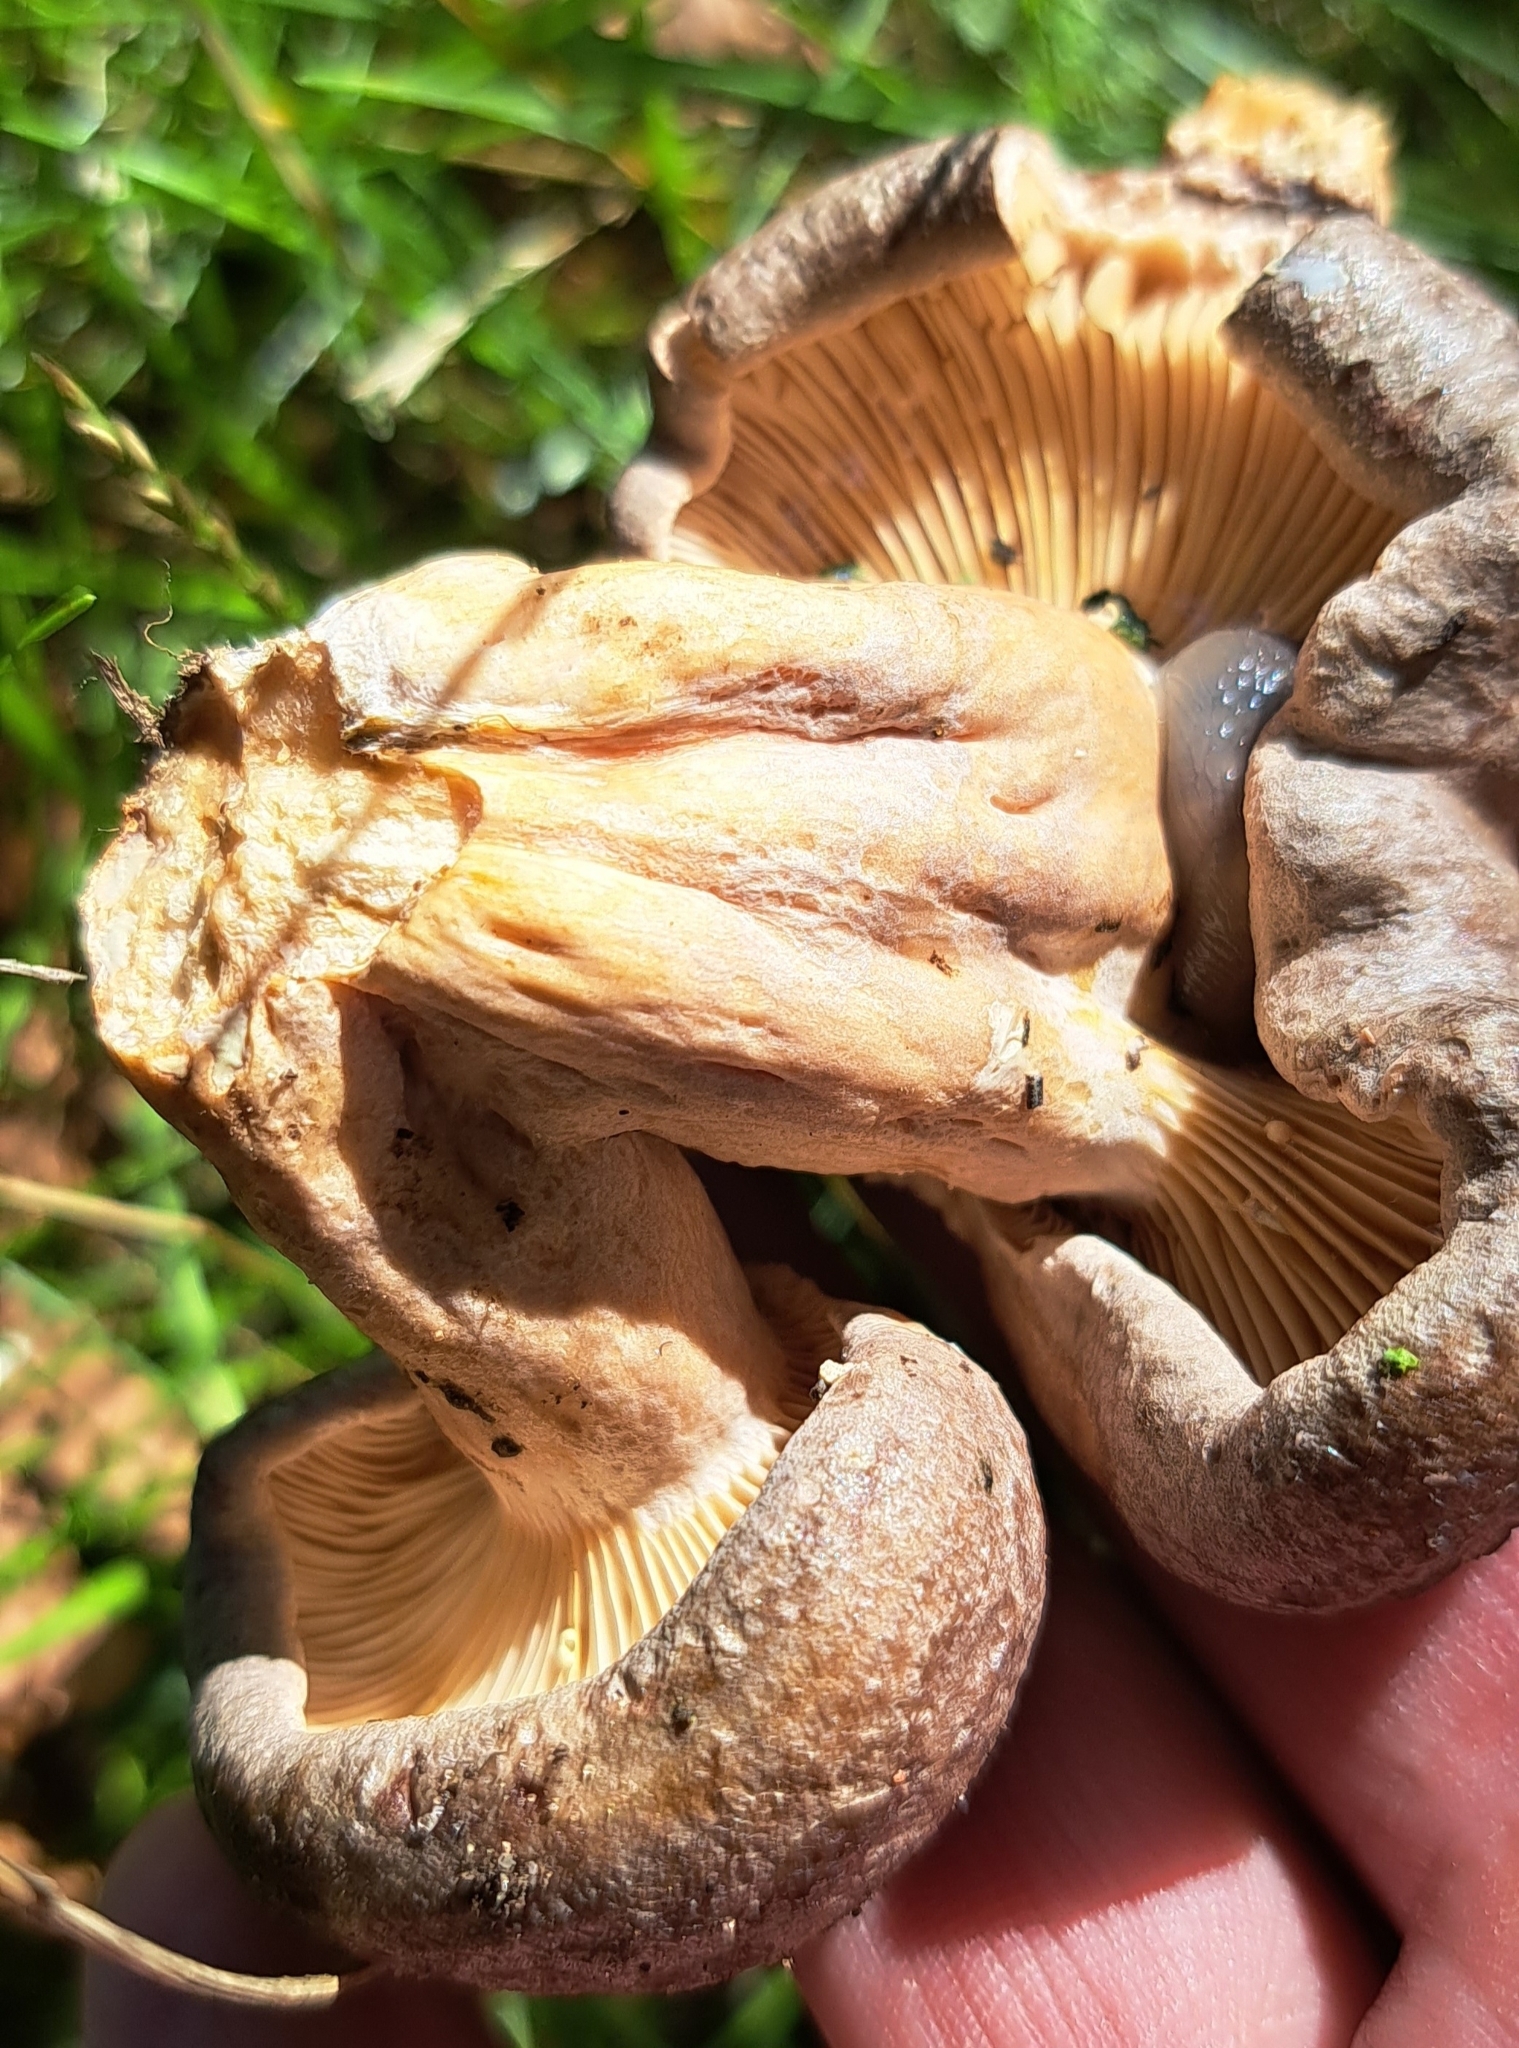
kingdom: Fungi
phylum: Basidiomycota
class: Agaricomycetes
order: Russulales
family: Russulaceae
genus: Lactarius
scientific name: Lactarius trivialis
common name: Tacked milkcap
